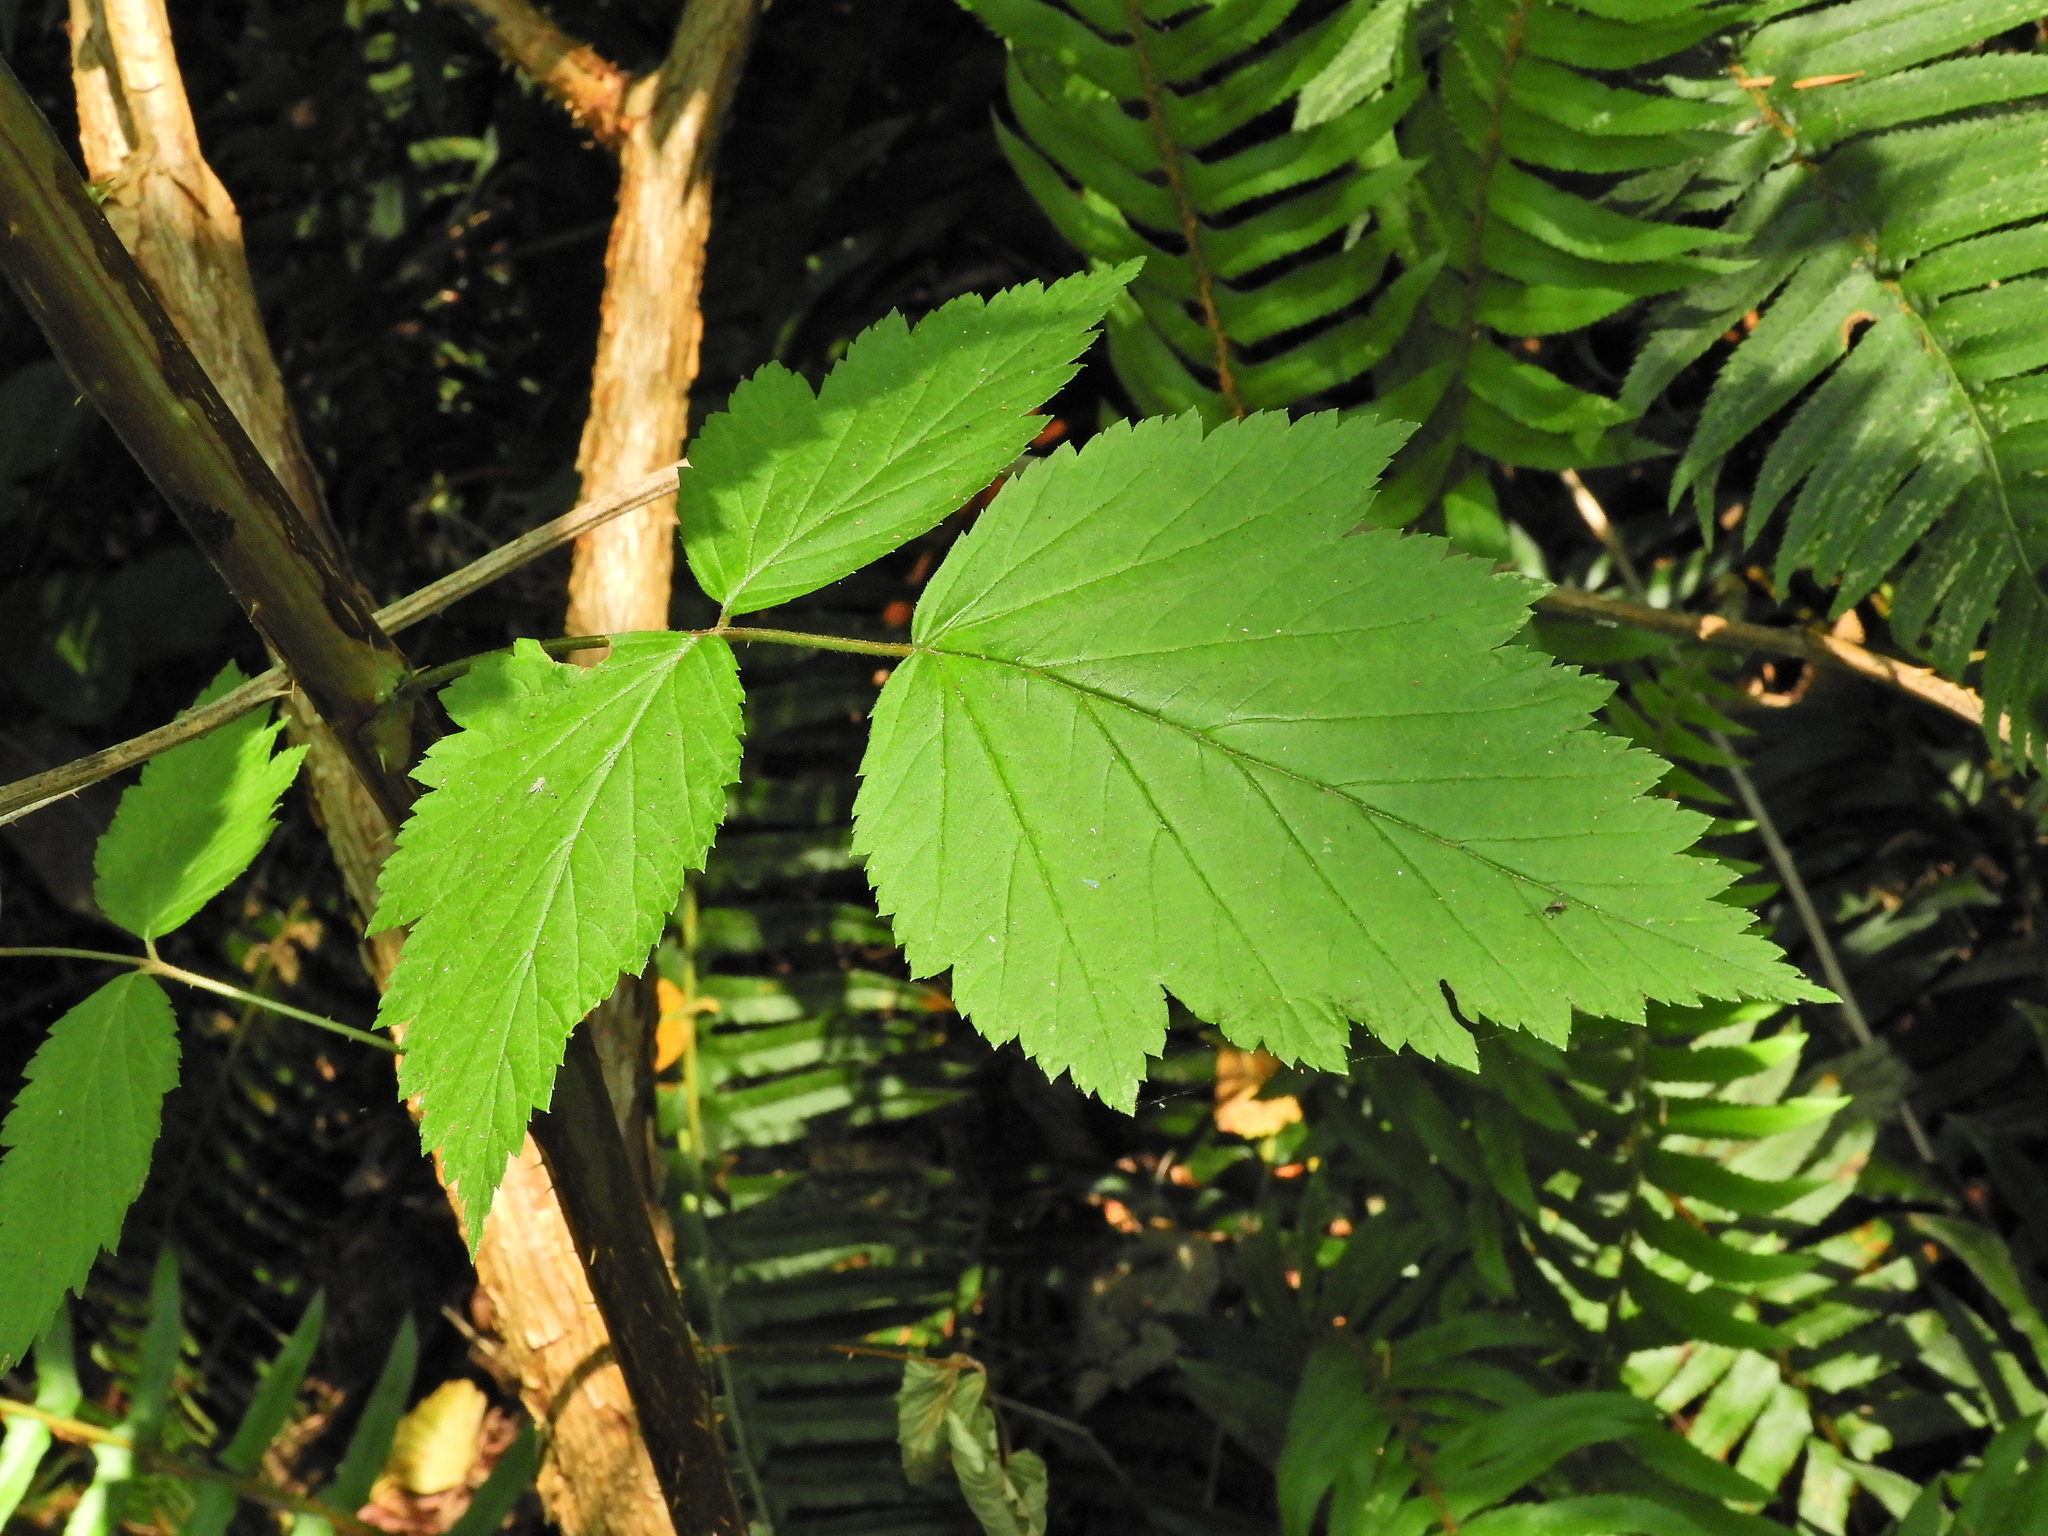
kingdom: Plantae
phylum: Tracheophyta
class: Magnoliopsida
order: Rosales
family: Rosaceae
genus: Rubus
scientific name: Rubus spectabilis
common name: Salmonberry
